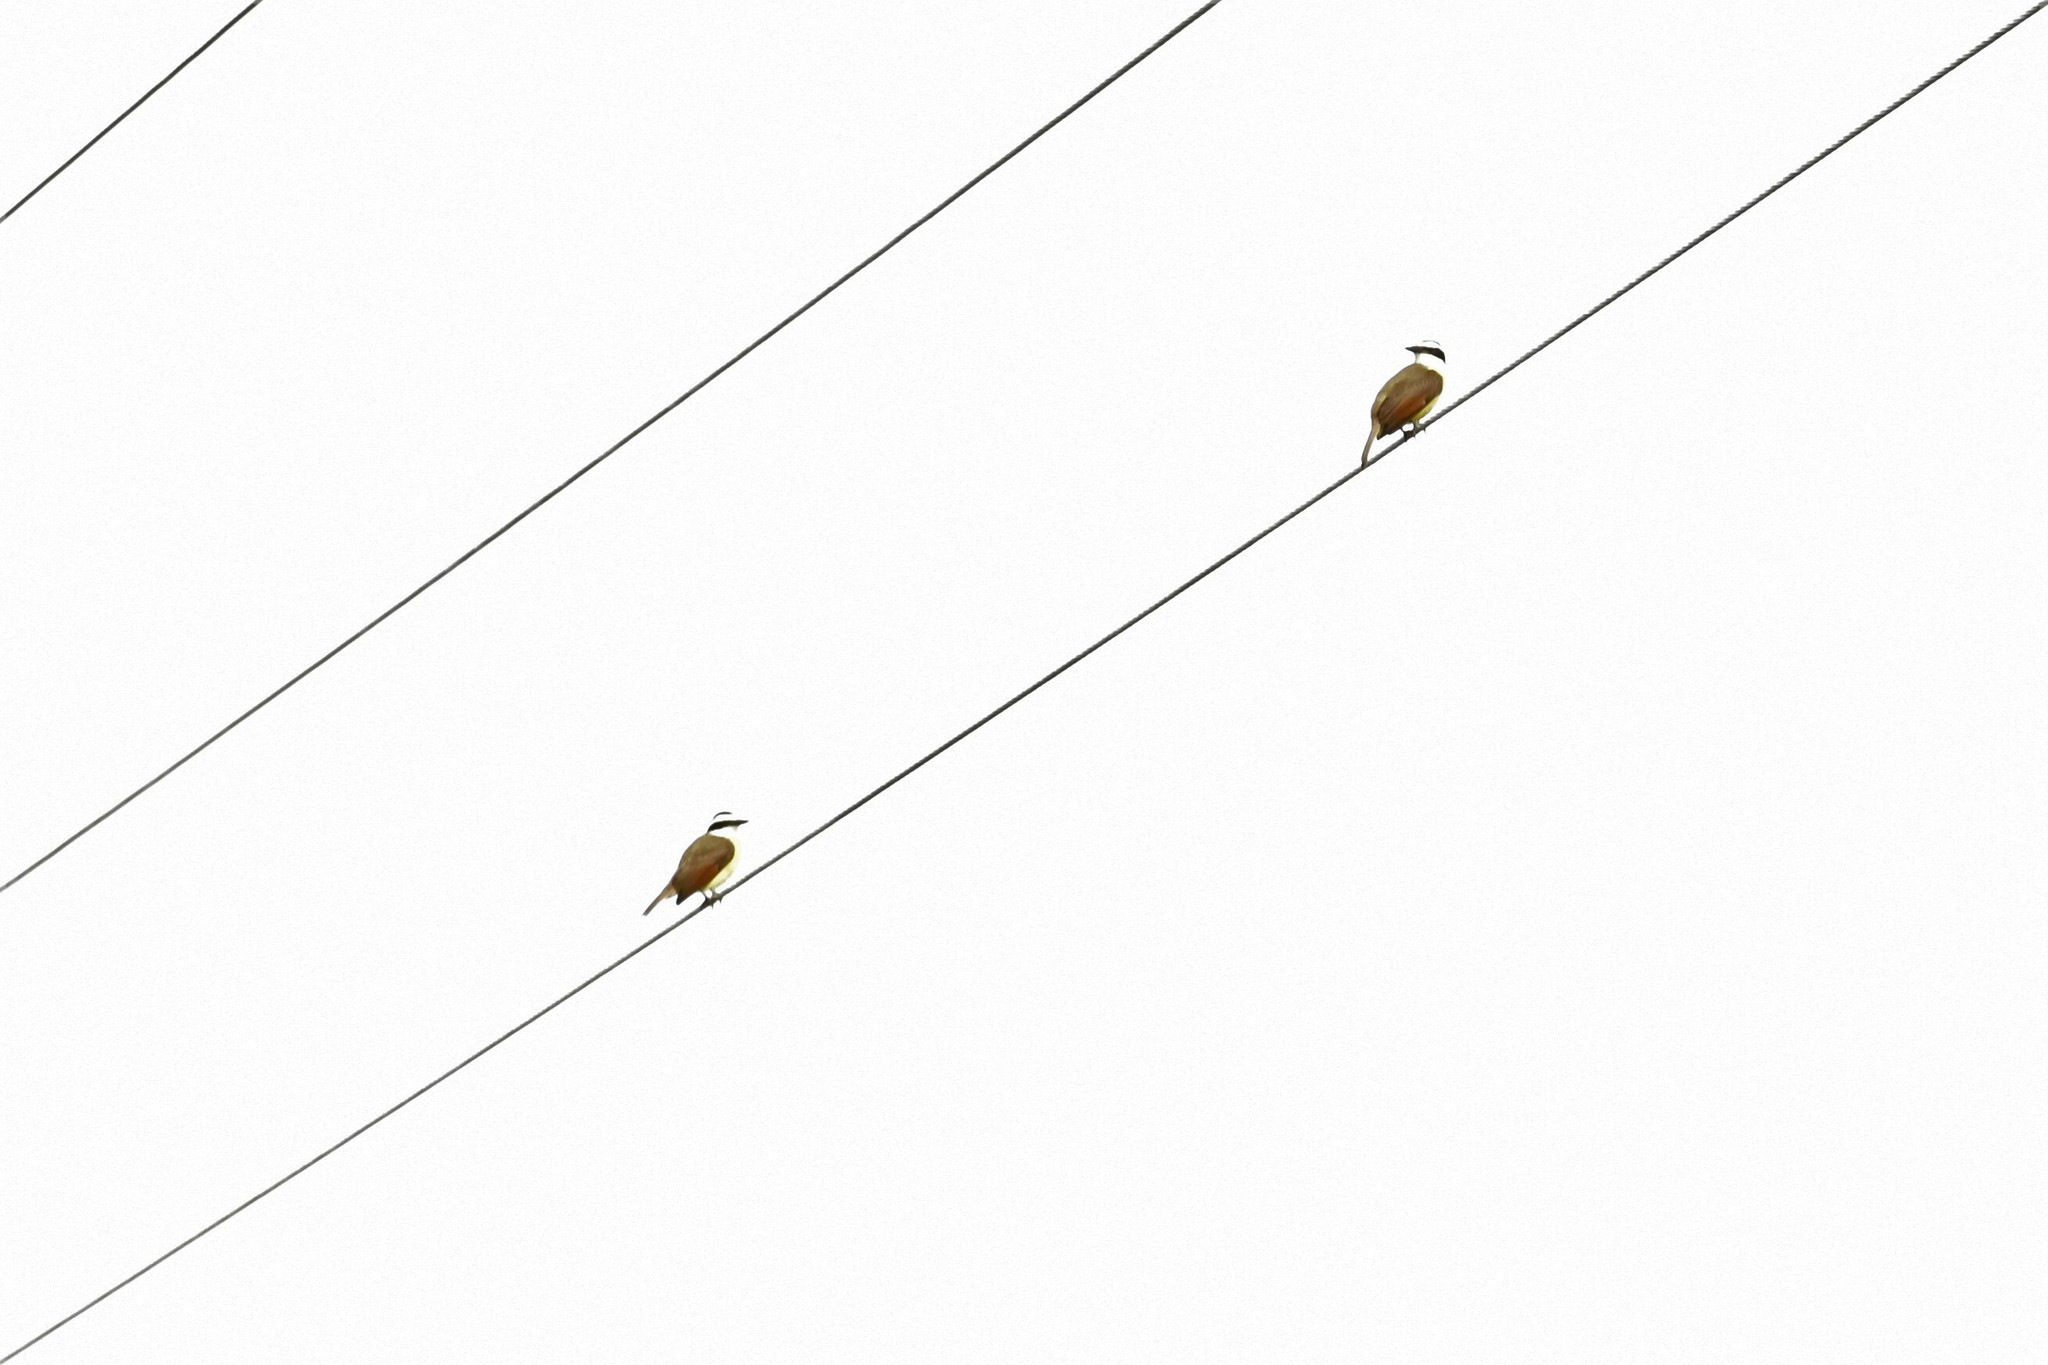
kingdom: Animalia
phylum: Chordata
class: Aves
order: Passeriformes
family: Tyrannidae
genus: Pitangus
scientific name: Pitangus sulphuratus
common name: Great kiskadee
